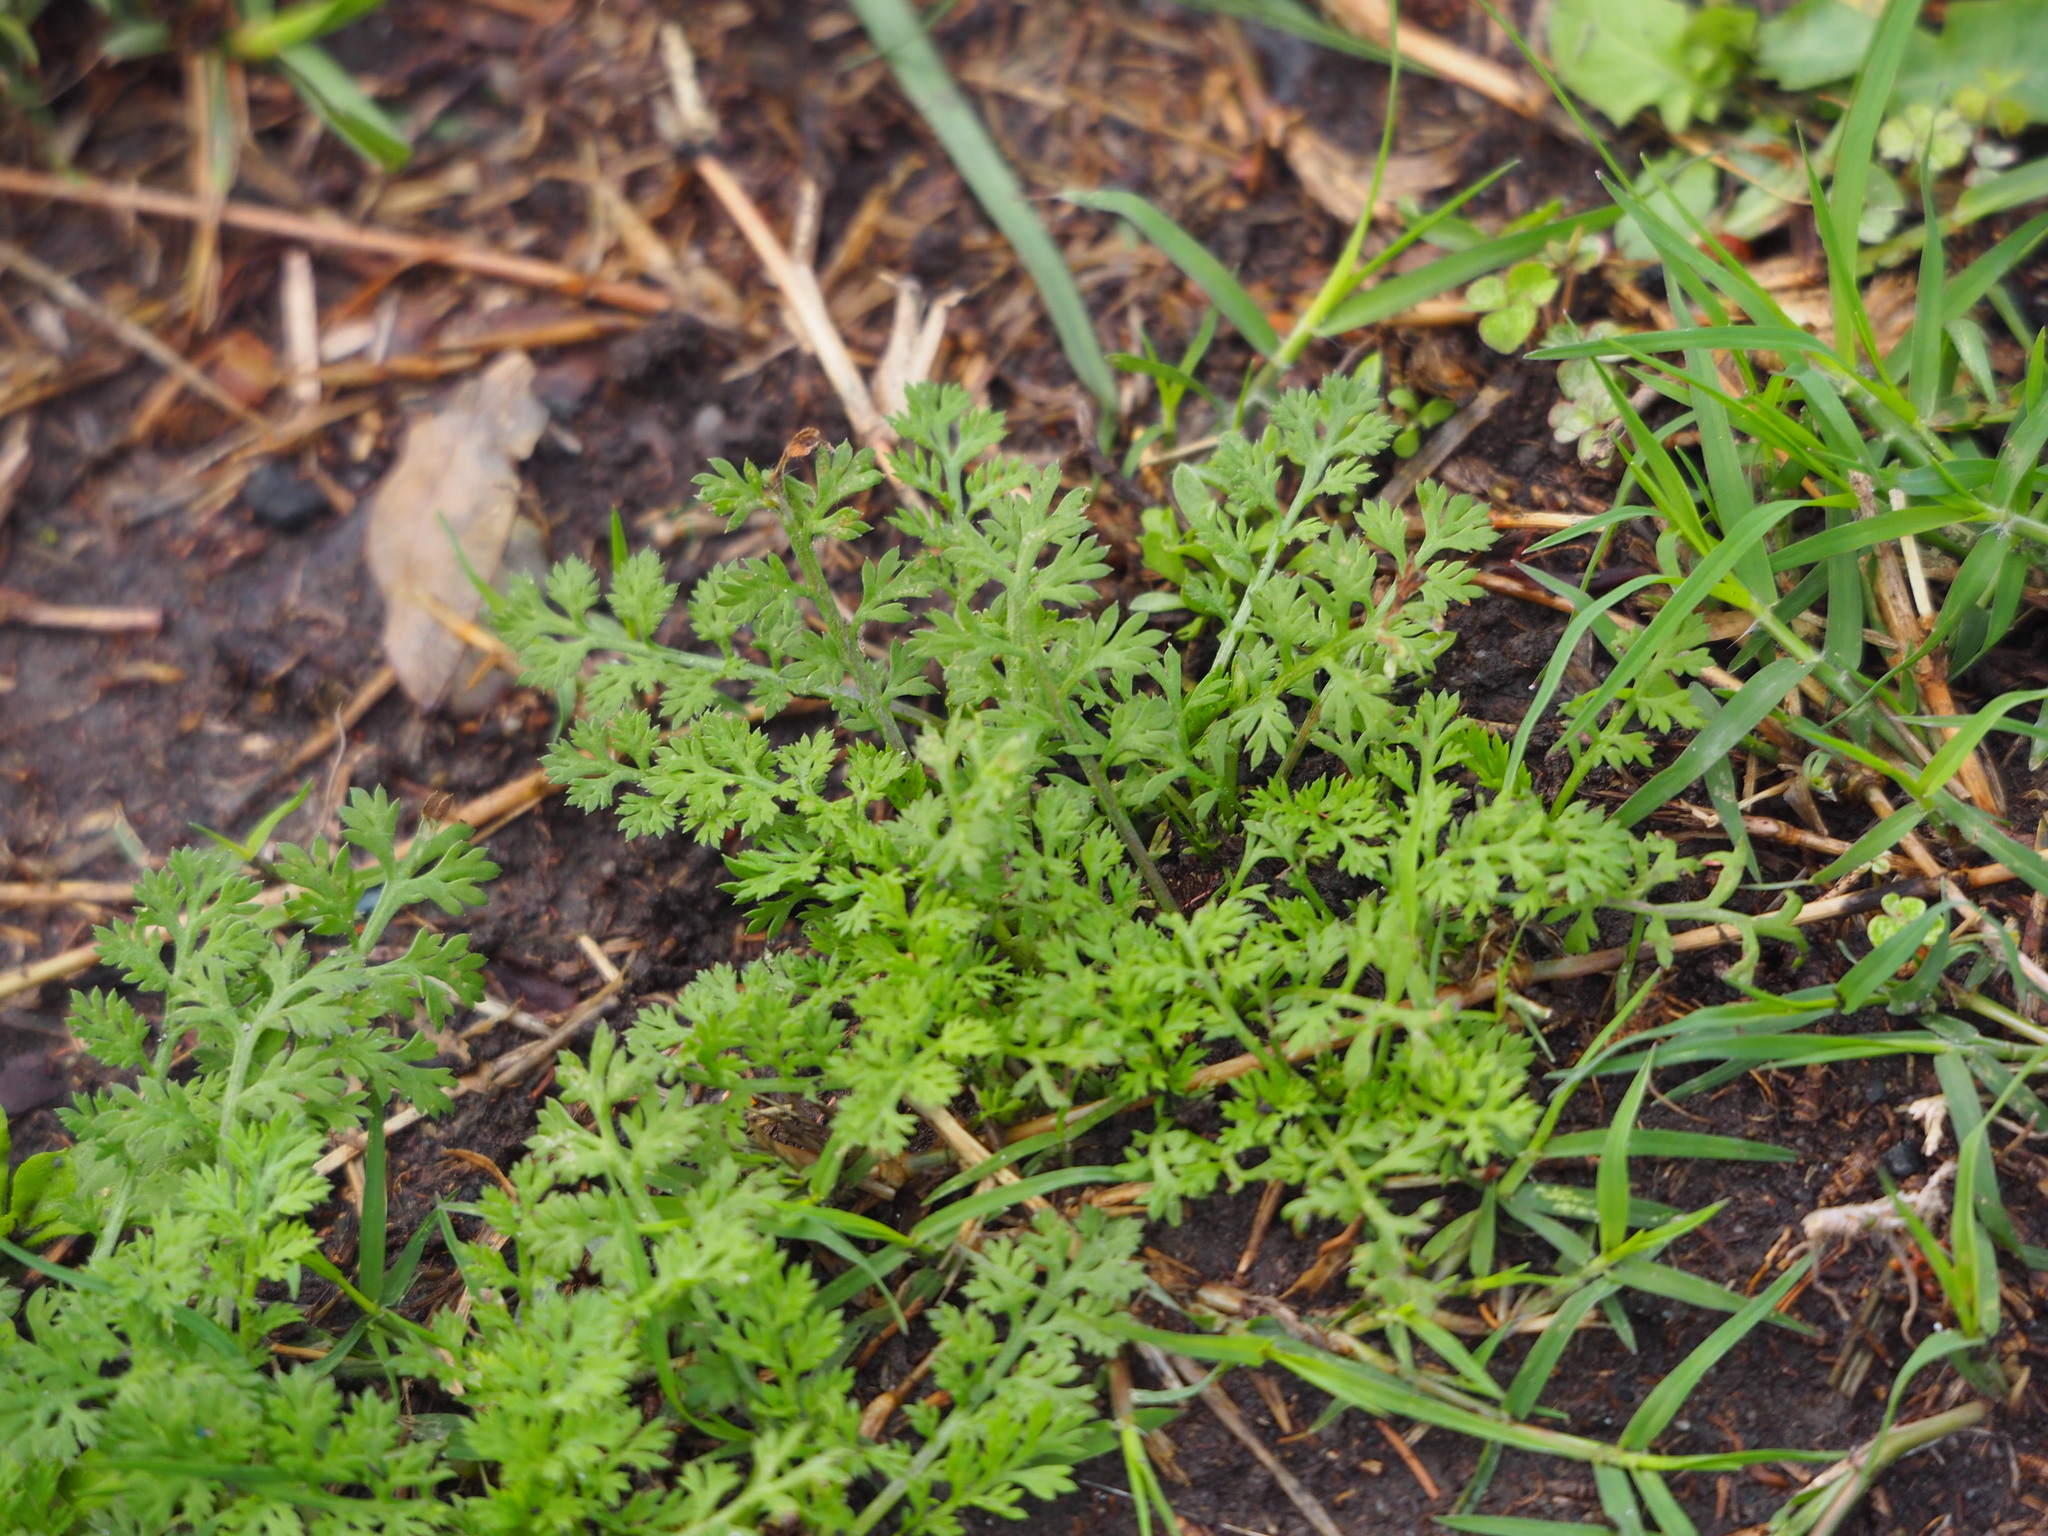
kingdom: Plantae
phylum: Tracheophyta
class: Magnoliopsida
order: Asterales
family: Asteraceae
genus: Soliva
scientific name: Soliva anthemifolia
